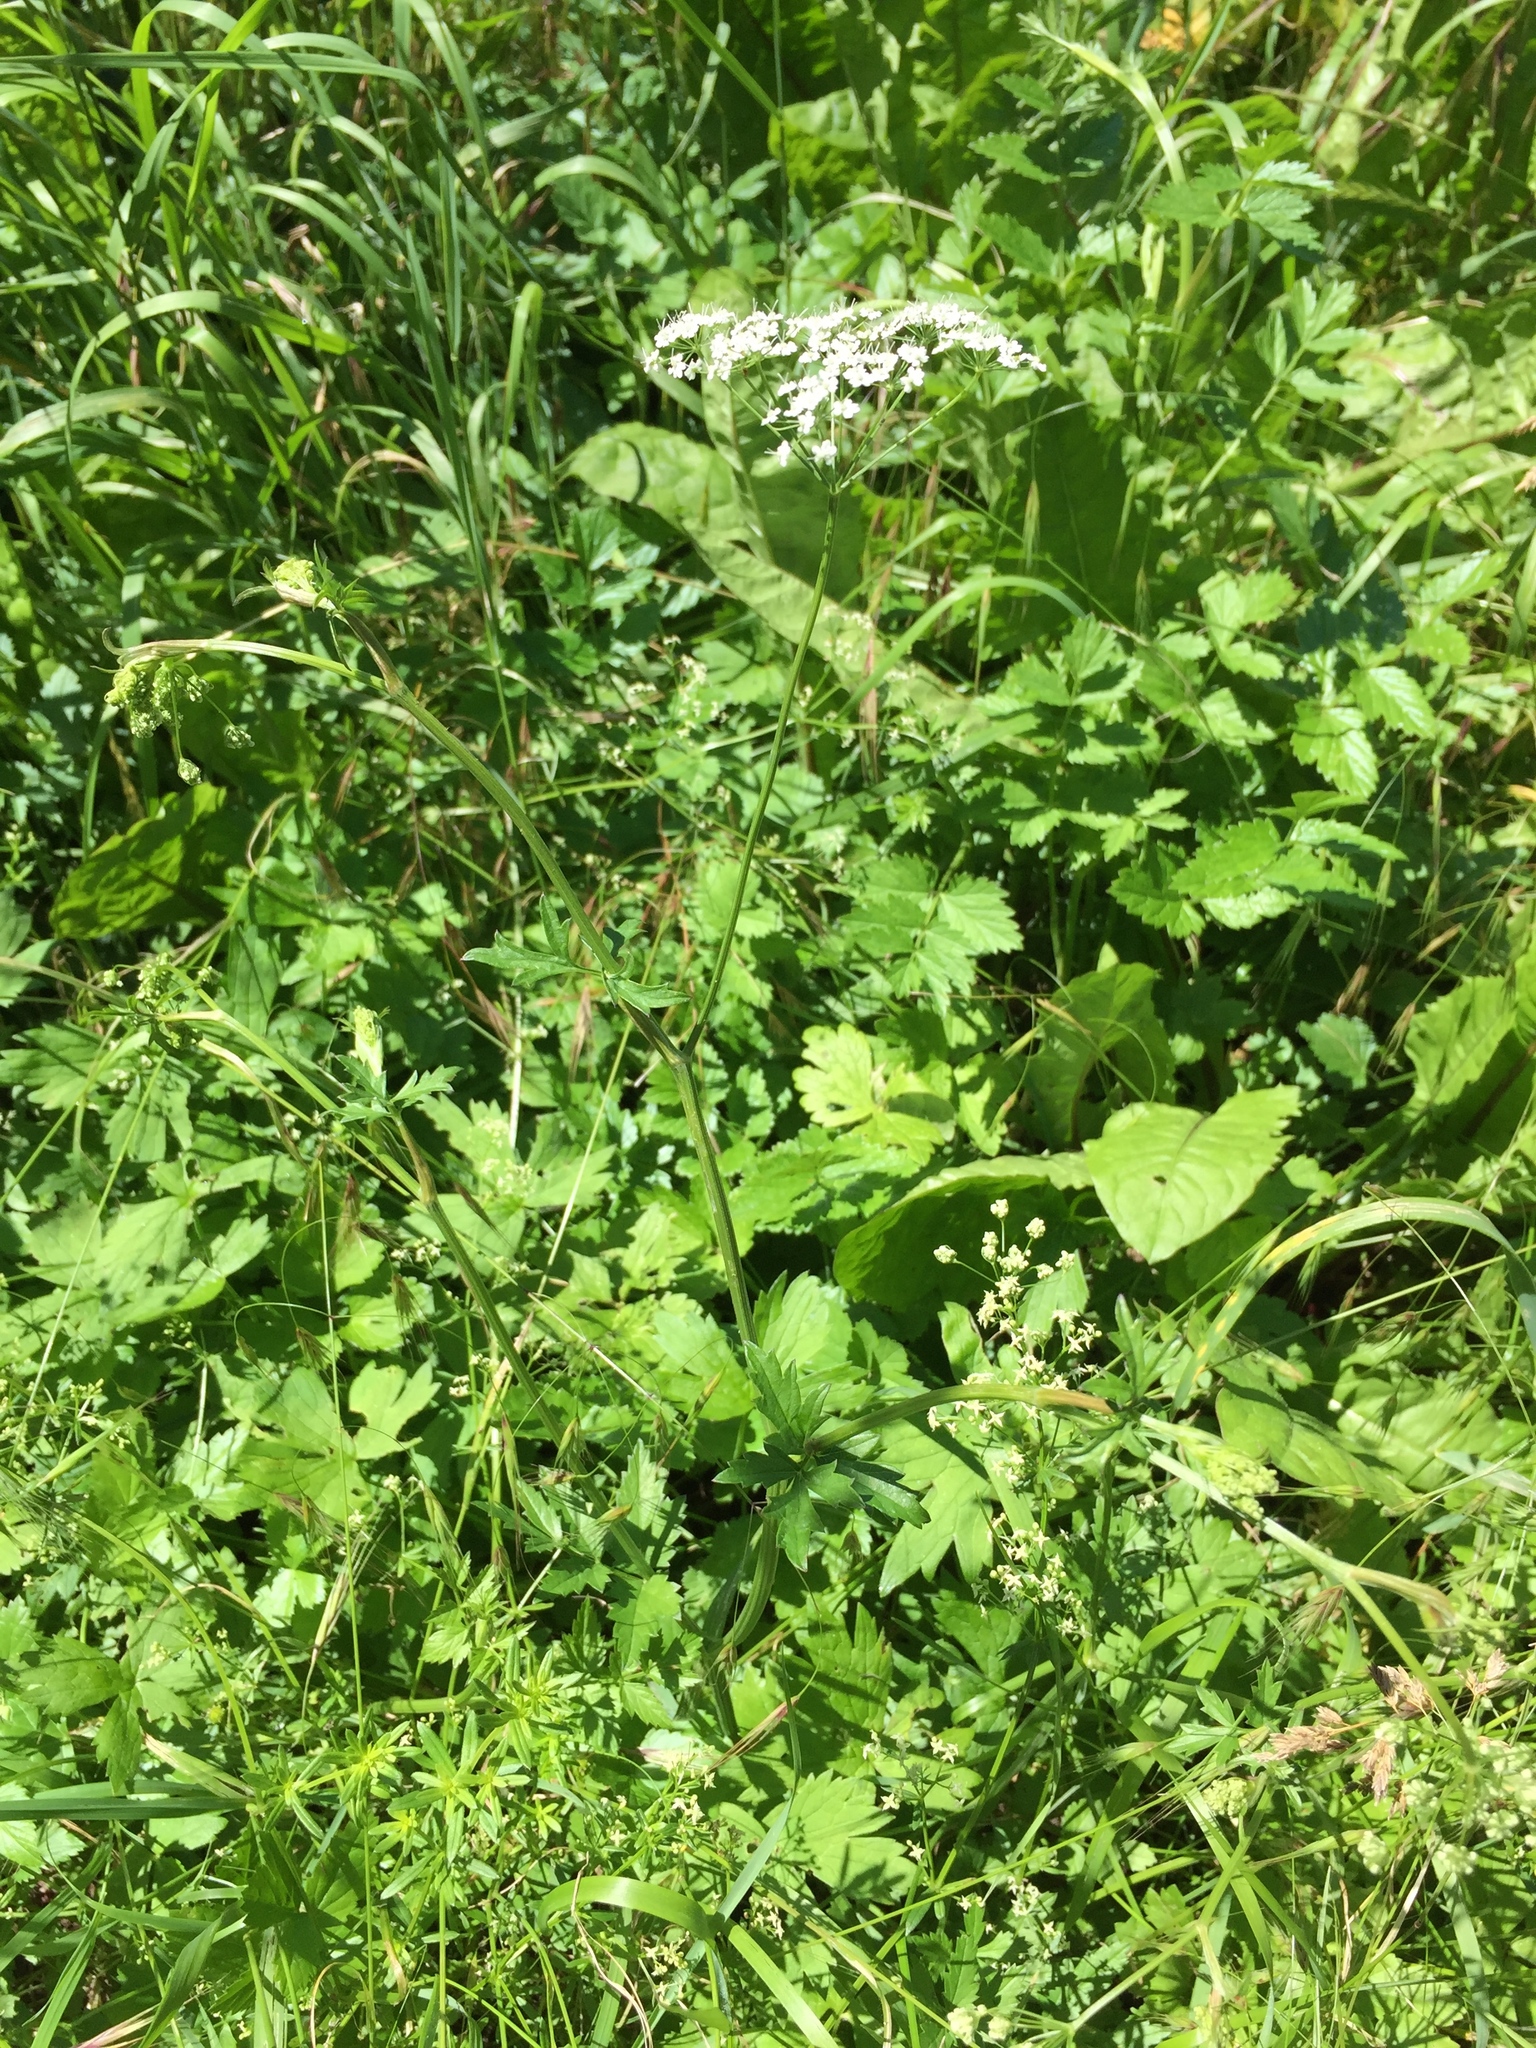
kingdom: Plantae
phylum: Tracheophyta
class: Magnoliopsida
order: Apiales
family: Apiaceae
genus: Pimpinella
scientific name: Pimpinella major
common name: Greater burnet-saxifrage
